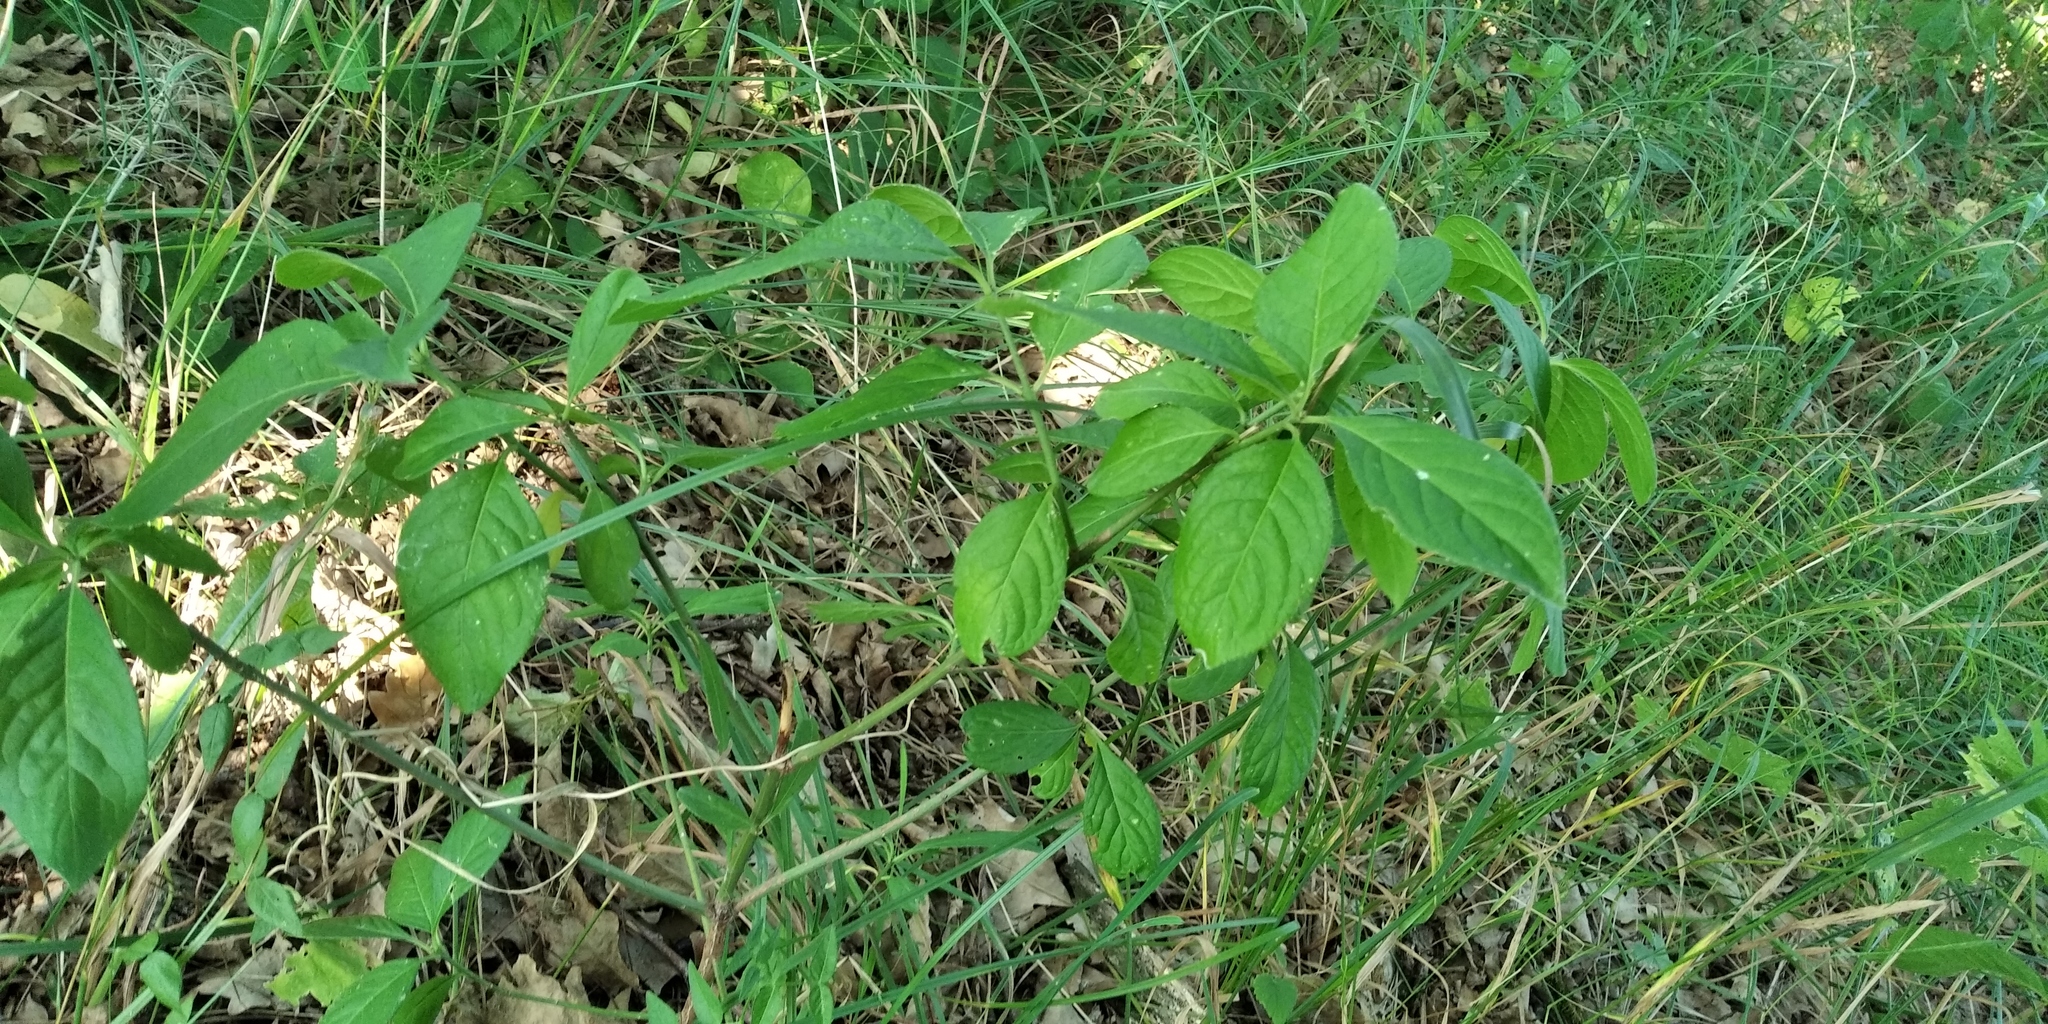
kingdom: Plantae
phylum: Tracheophyta
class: Magnoliopsida
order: Celastrales
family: Celastraceae
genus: Euonymus
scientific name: Euonymus europaeus
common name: Spindle
